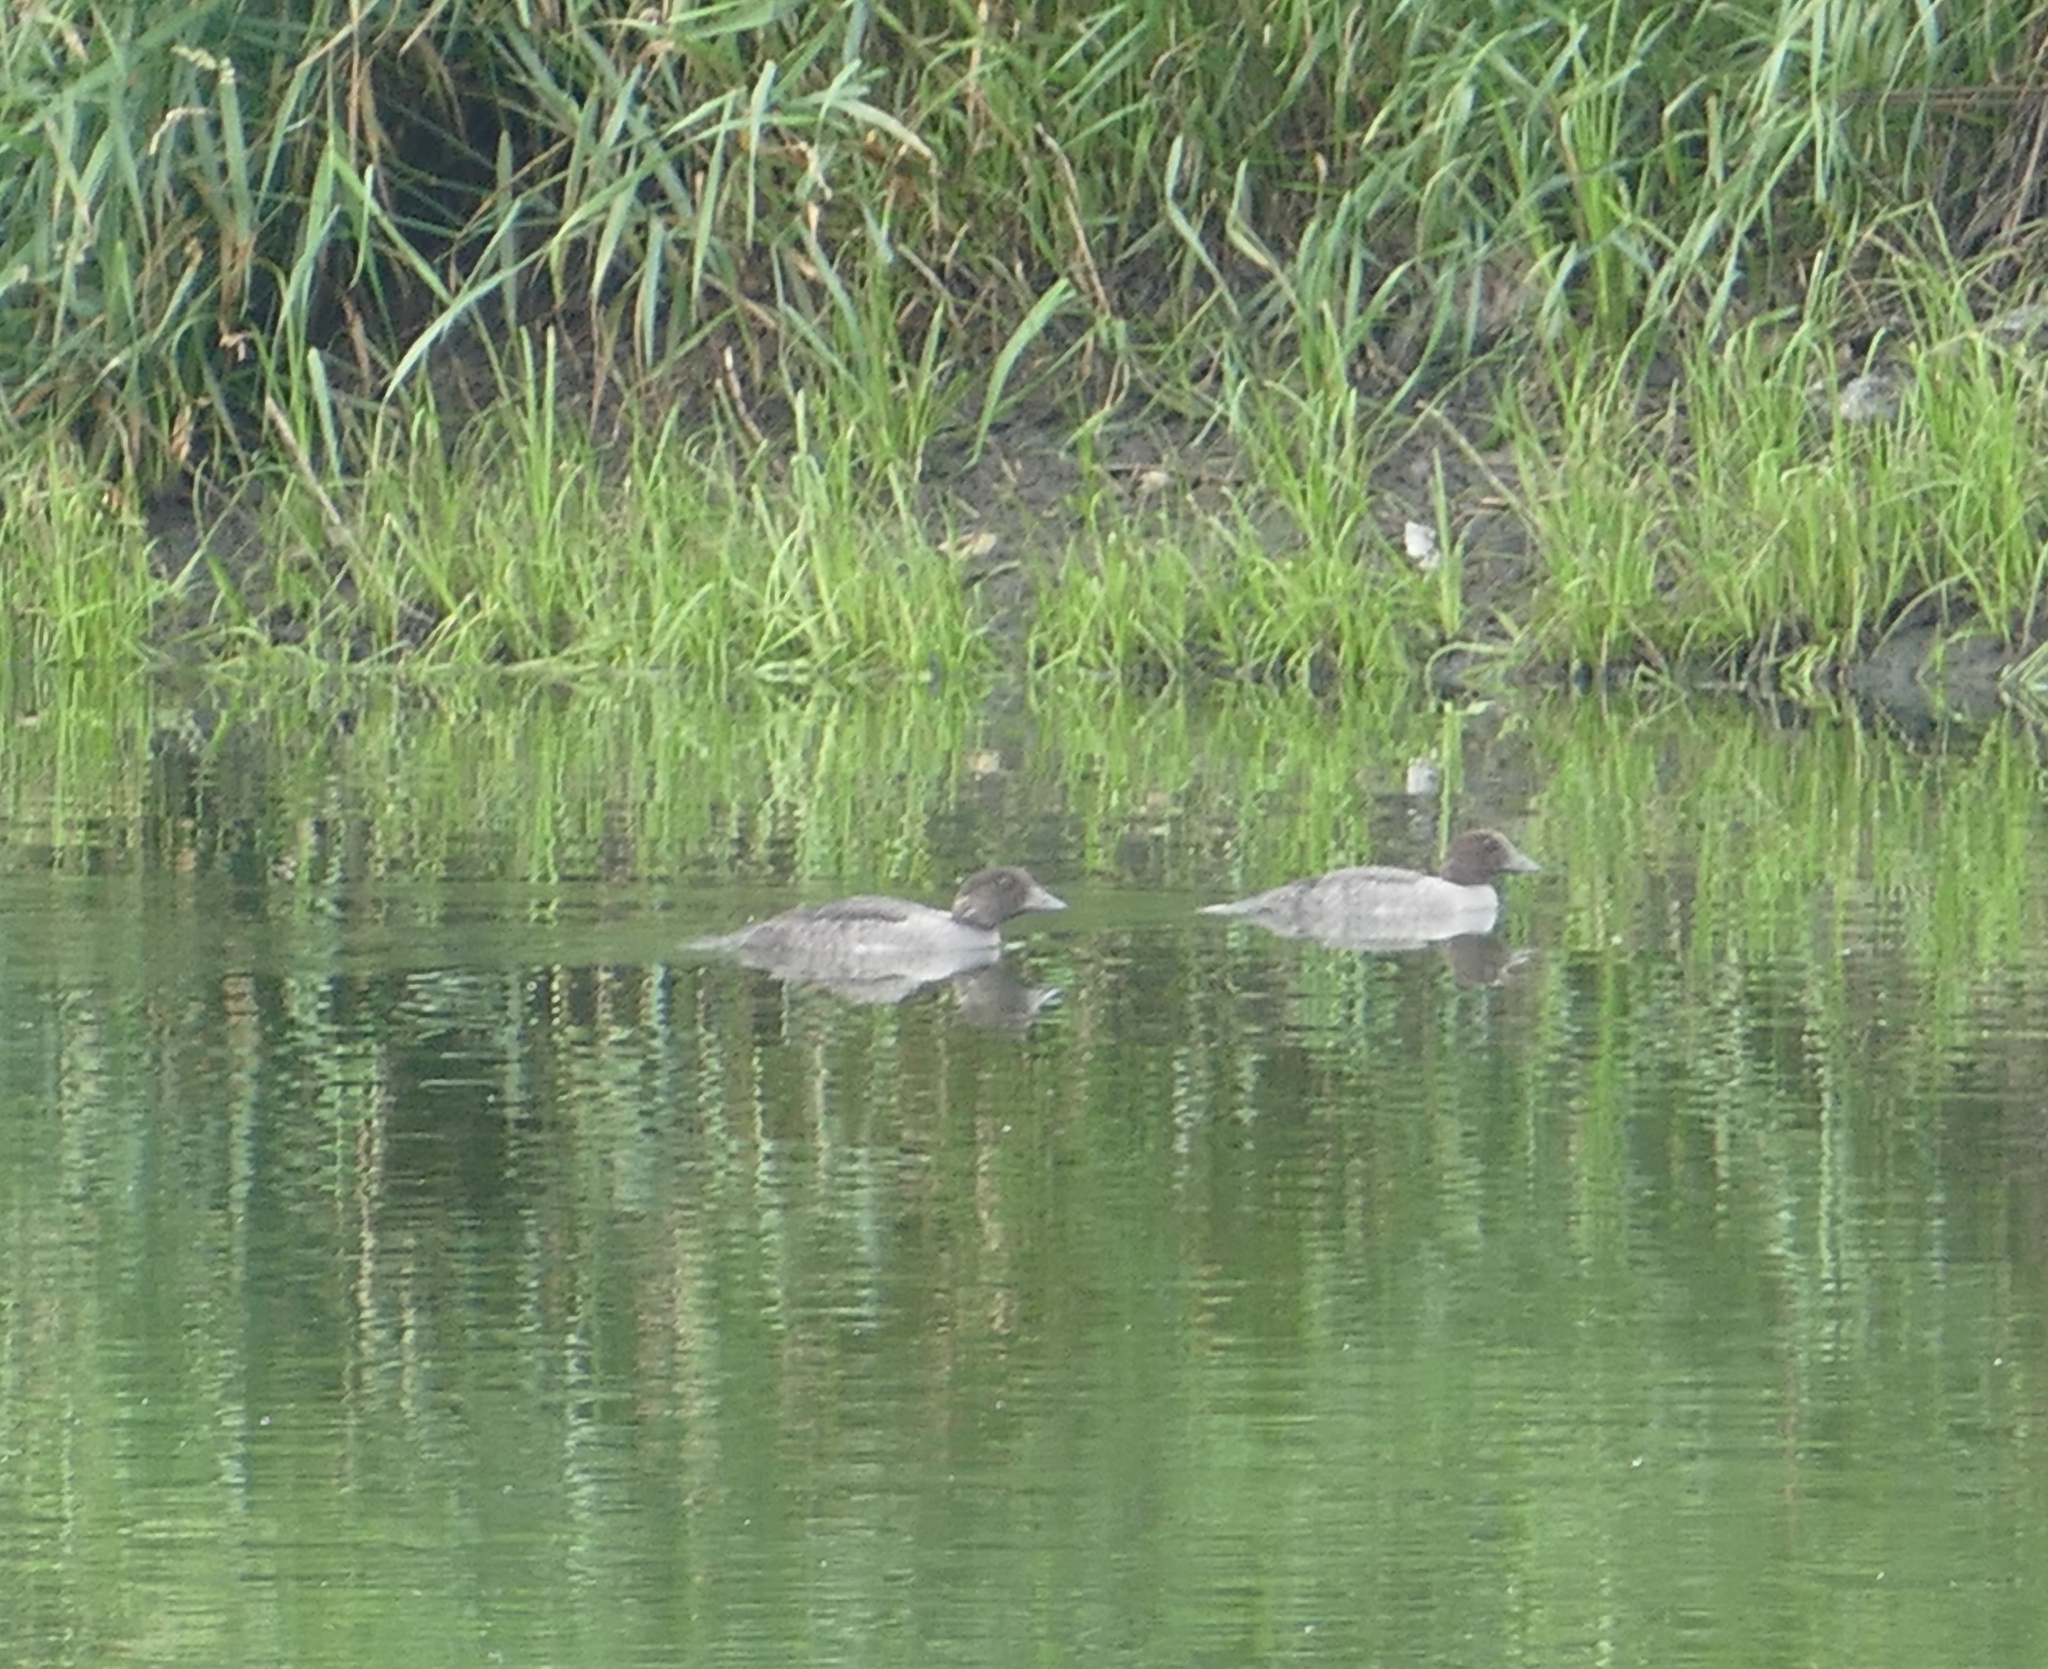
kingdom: Animalia
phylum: Chordata
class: Aves
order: Anseriformes
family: Anatidae
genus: Bucephala
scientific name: Bucephala clangula
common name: Common goldeneye
